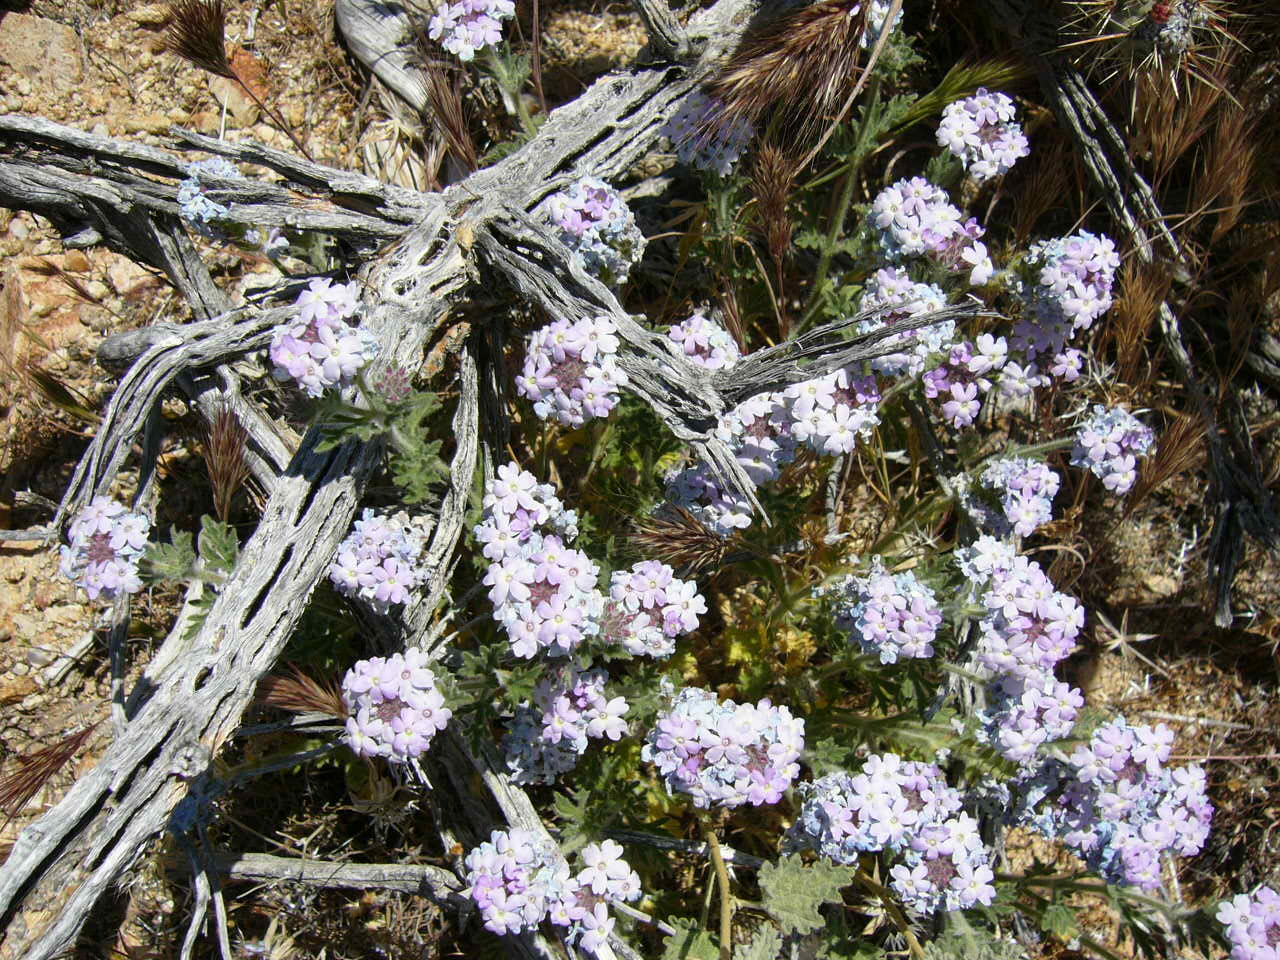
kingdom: Plantae
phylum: Tracheophyta
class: Magnoliopsida
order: Lamiales
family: Verbenaceae
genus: Verbena
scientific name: Verbena gooddingii
